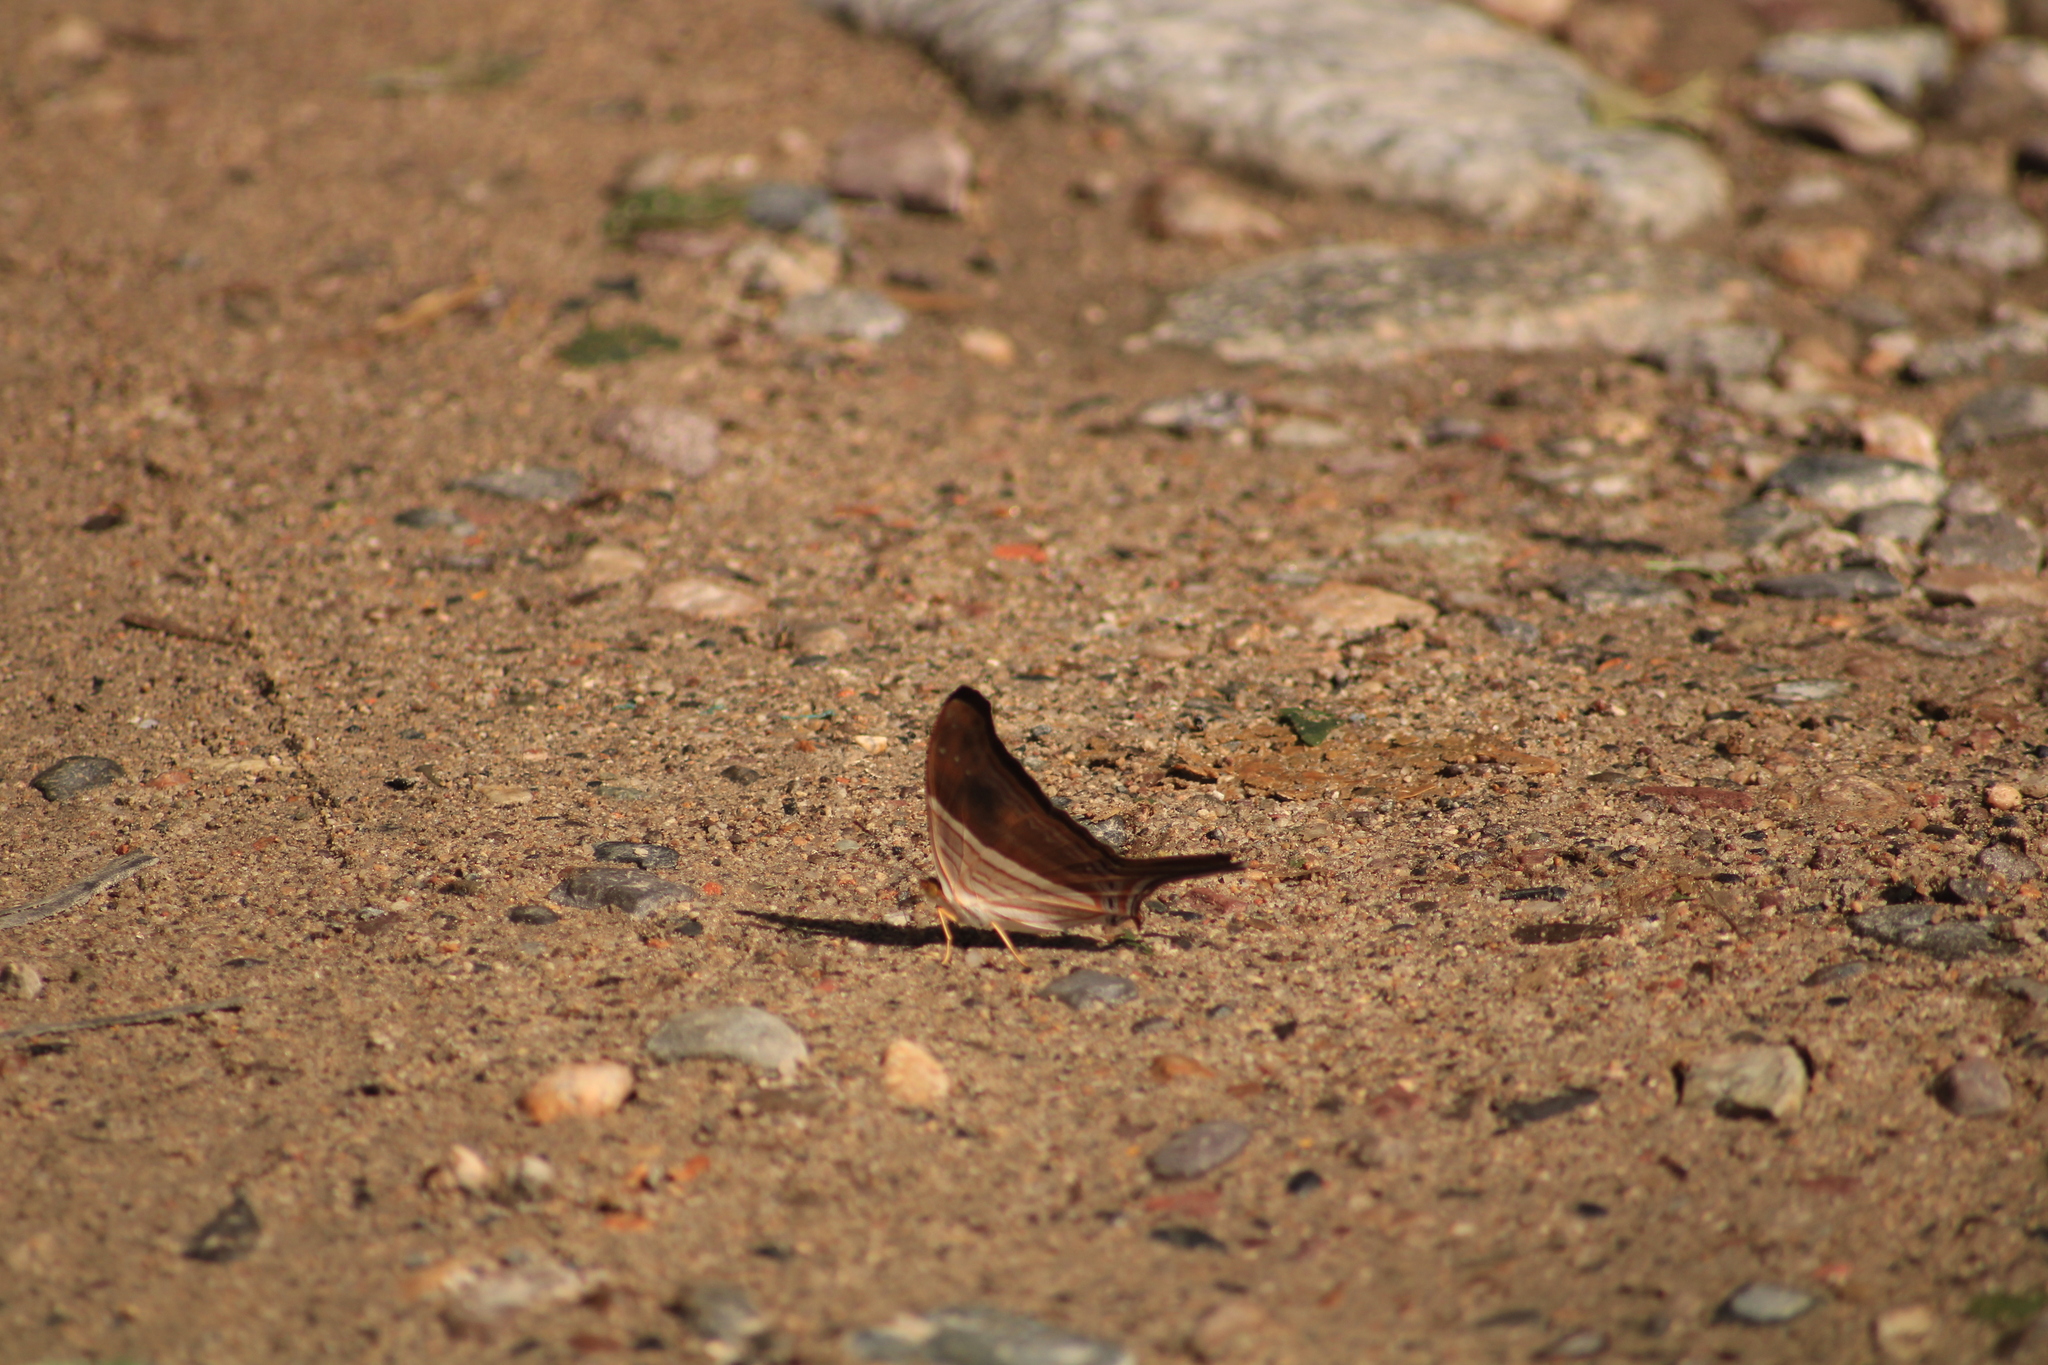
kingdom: Animalia
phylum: Arthropoda
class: Insecta
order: Lepidoptera
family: Nymphalidae
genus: Marpesia
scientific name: Marpesia chiron
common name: Many-banded daggerwing
